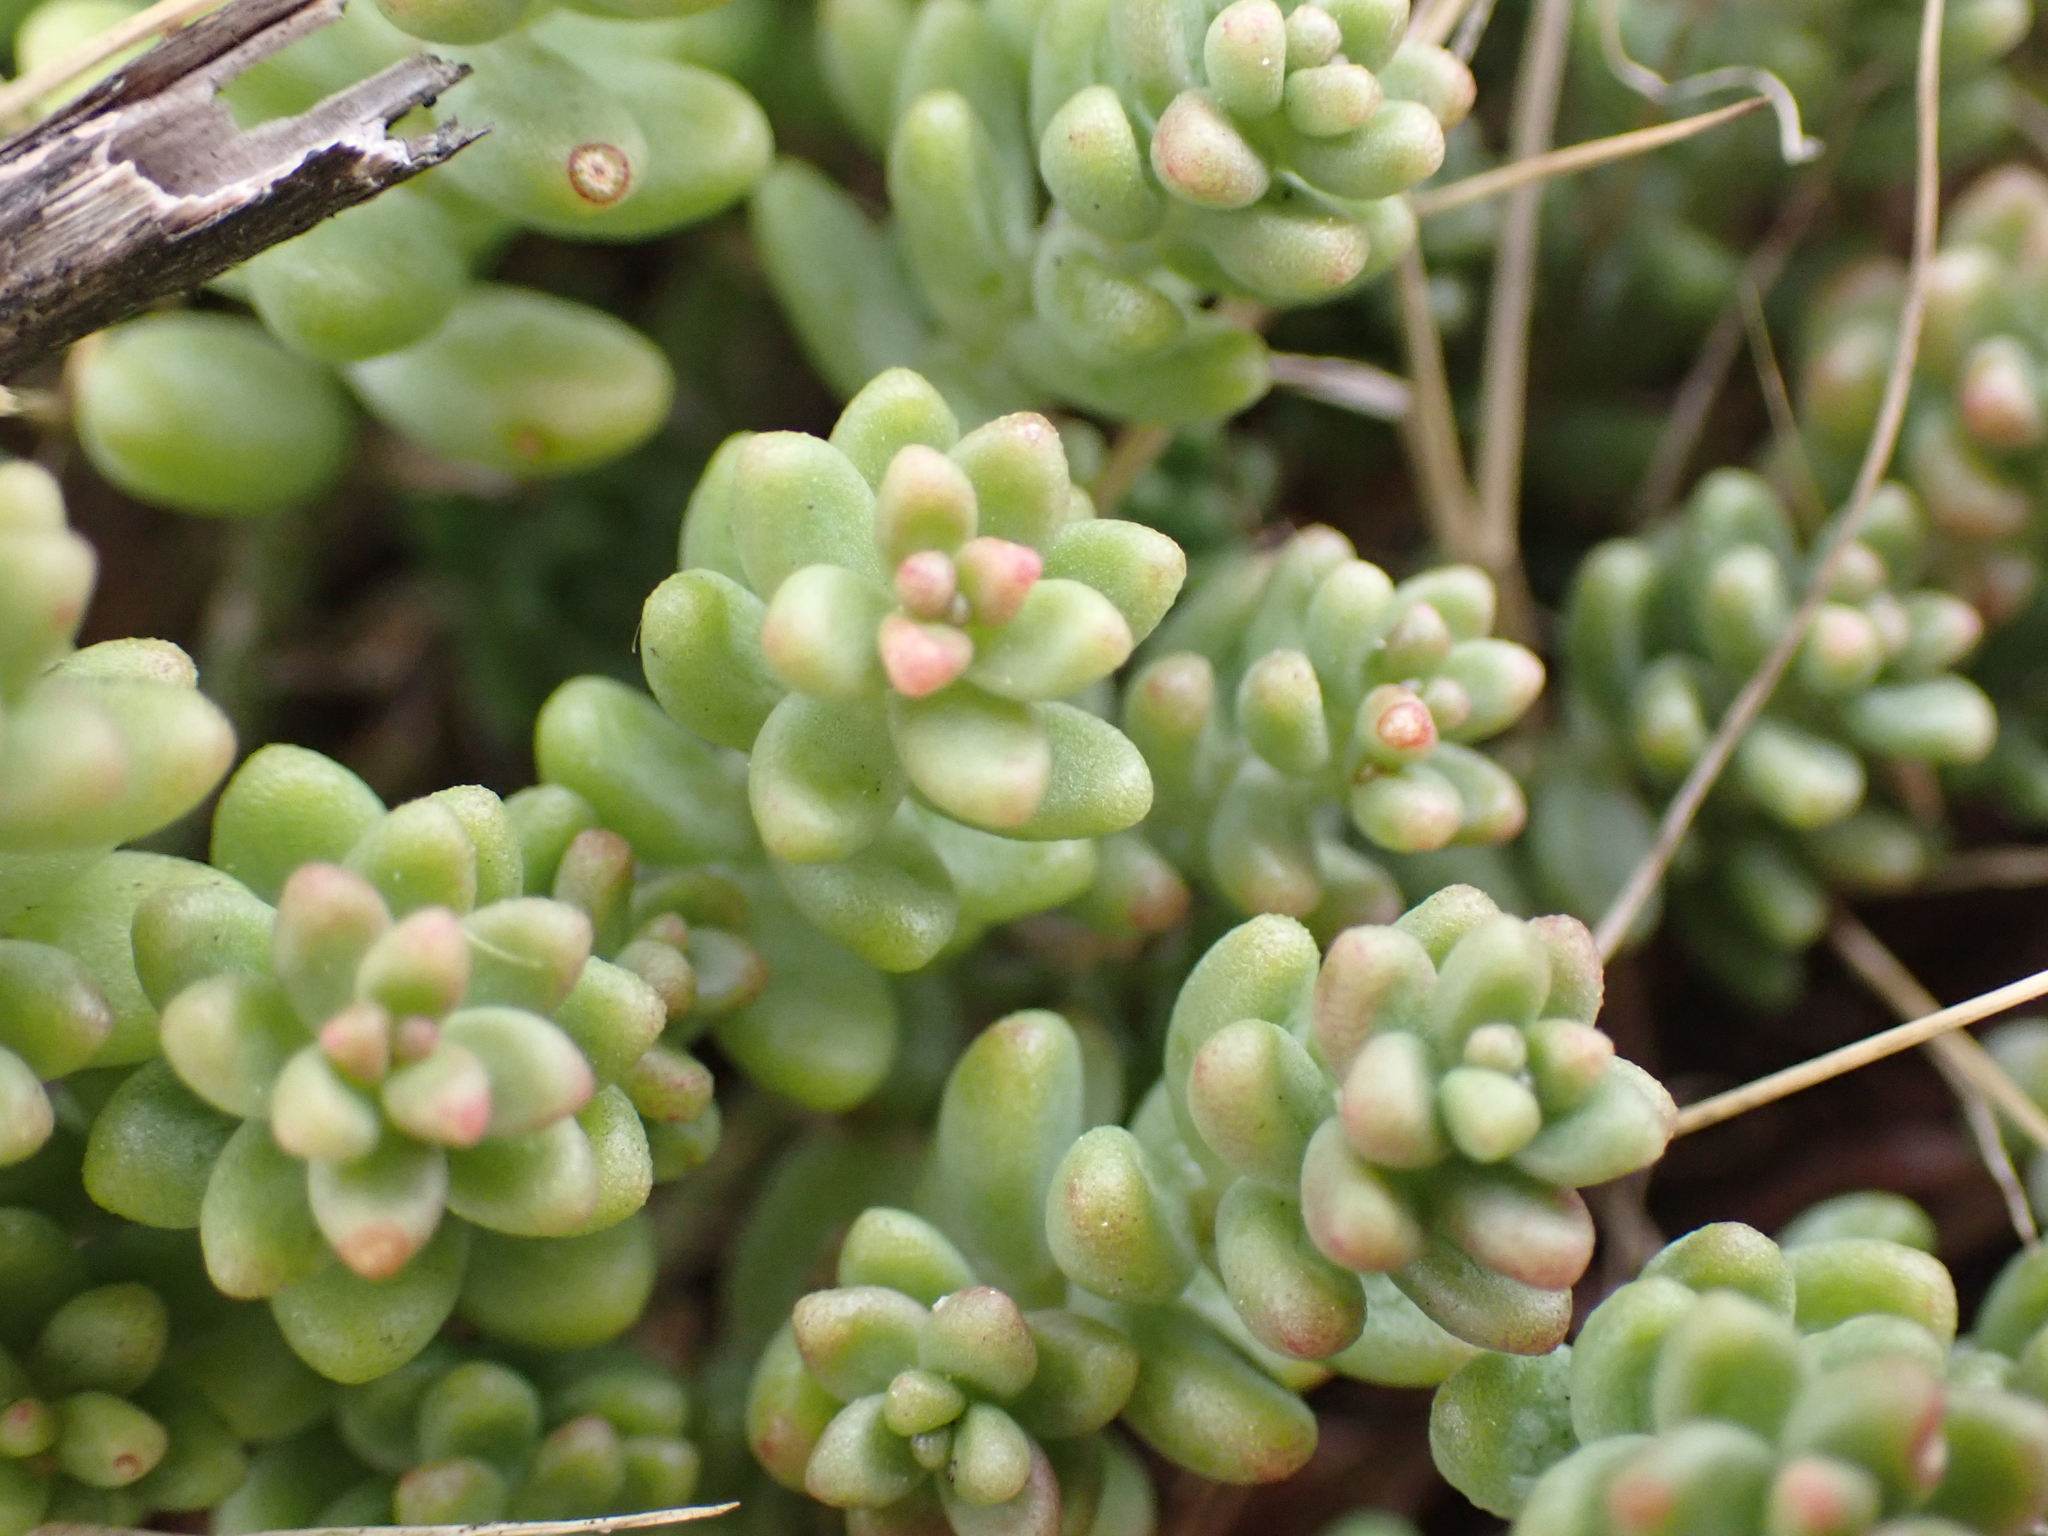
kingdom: Plantae
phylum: Tracheophyta
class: Magnoliopsida
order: Saxifragales
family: Crassulaceae
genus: Sedum
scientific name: Sedum album
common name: White stonecrop
